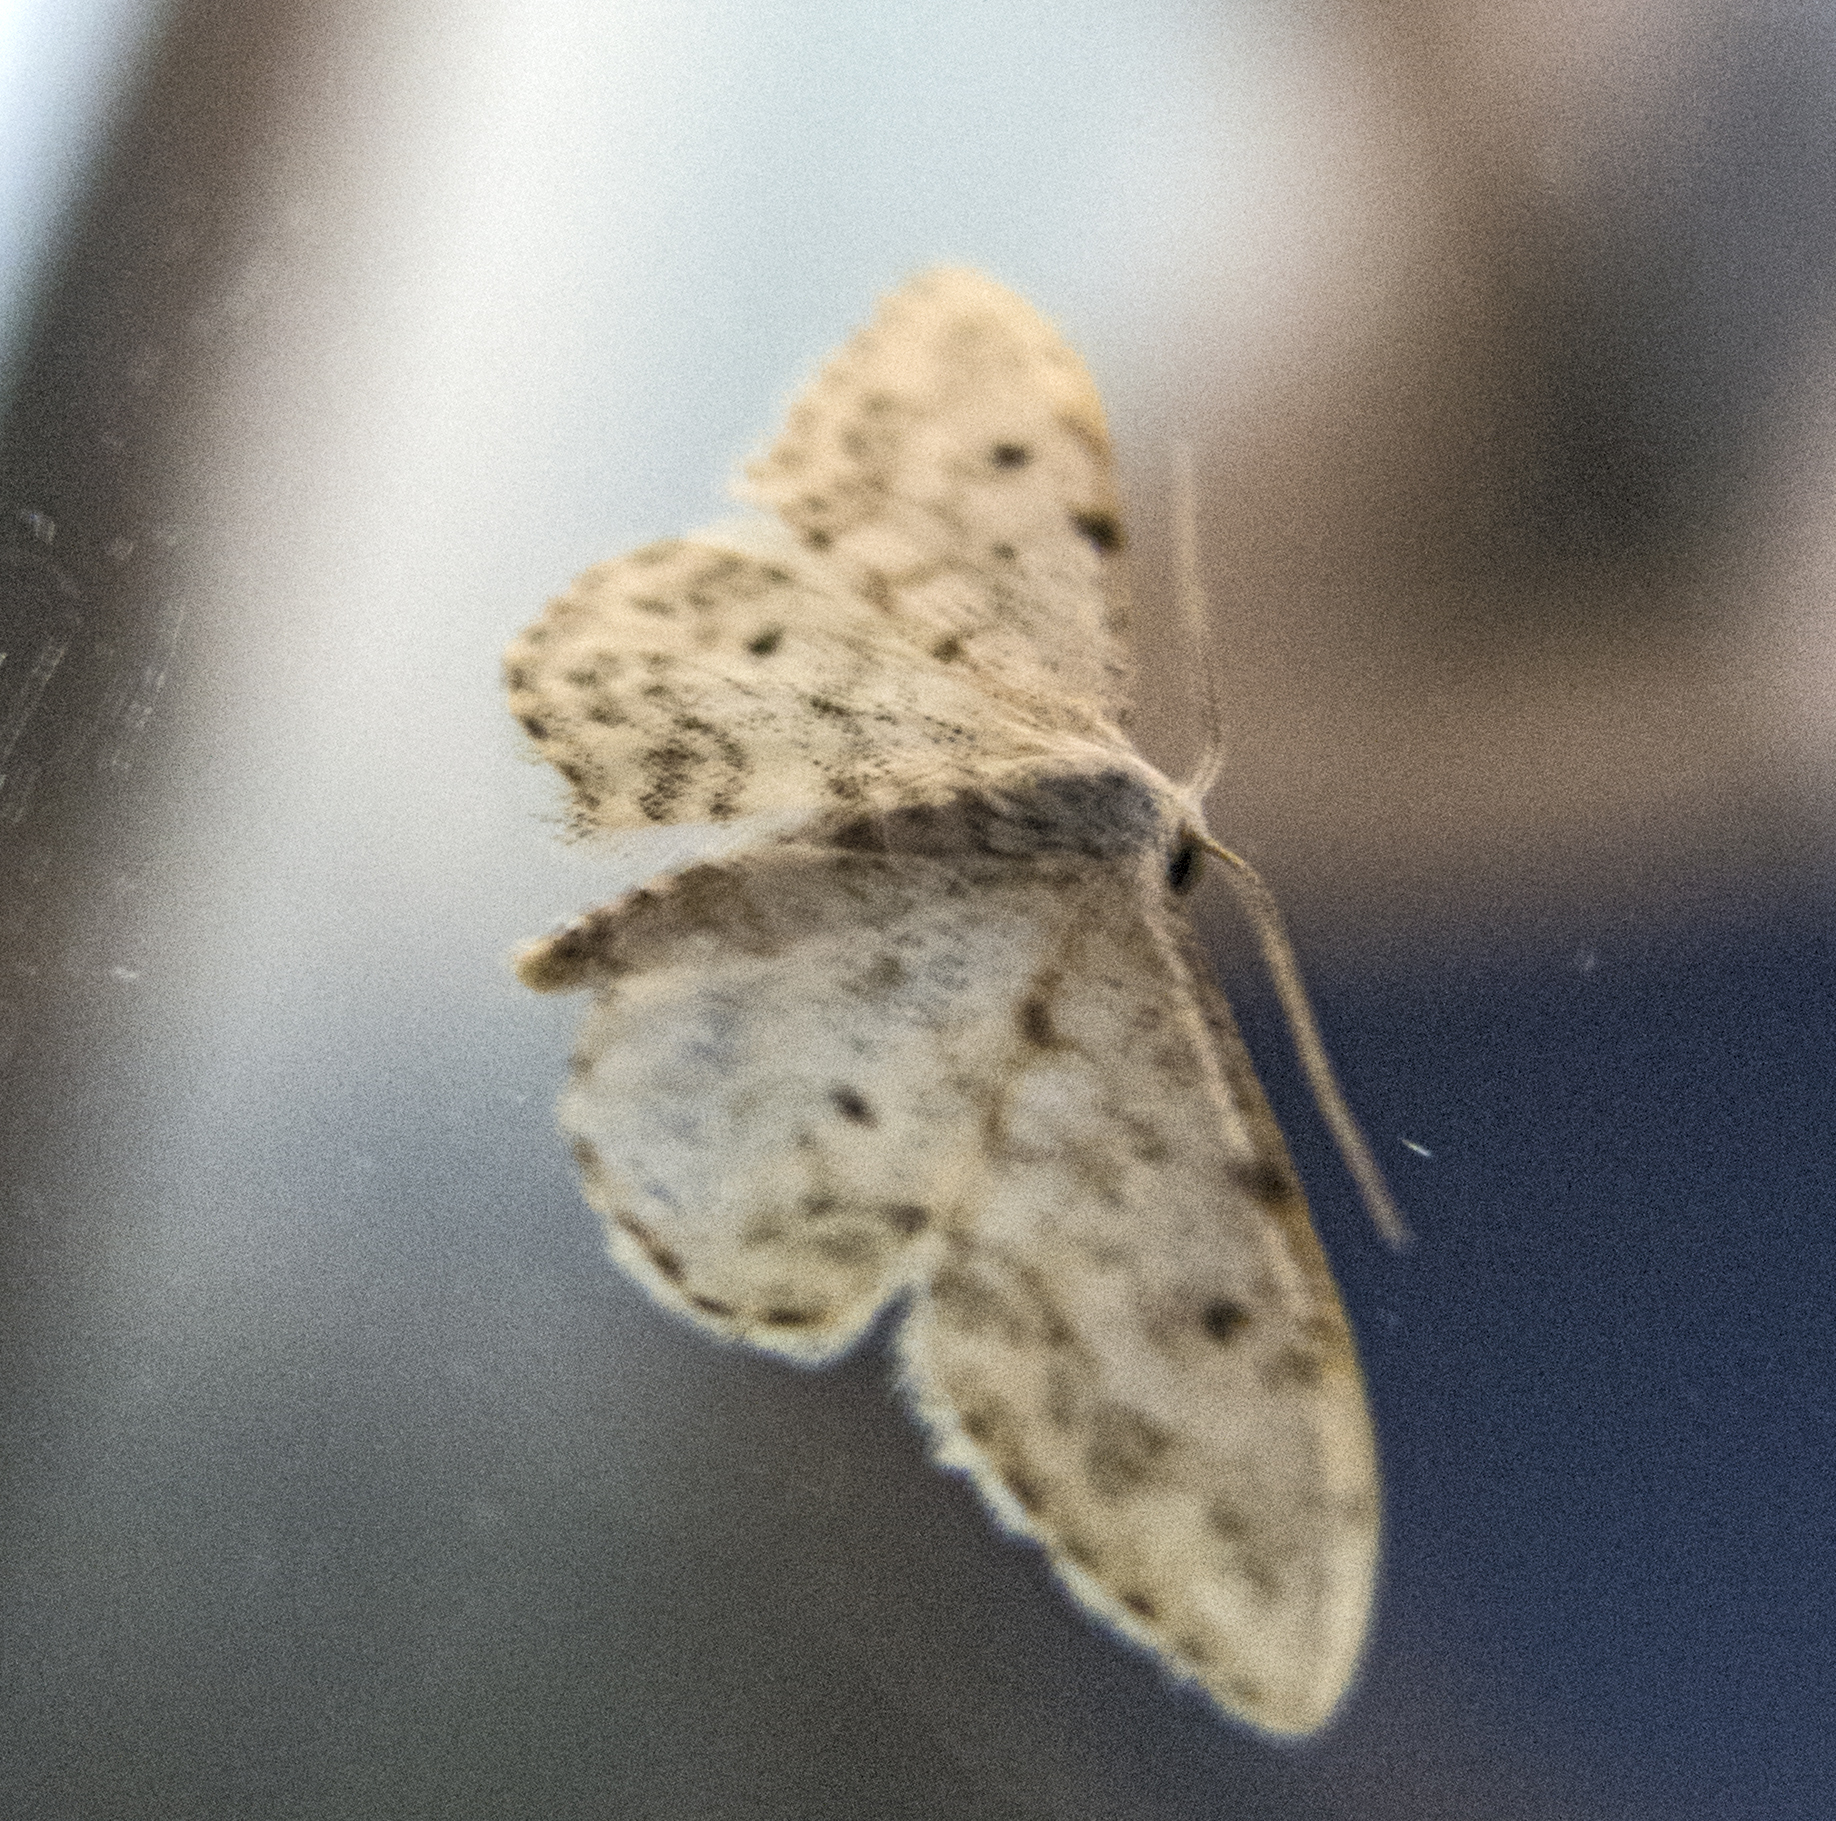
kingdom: Animalia
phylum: Arthropoda
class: Insecta
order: Lepidoptera
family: Geometridae
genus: Idaea
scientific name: Idaea camparia
